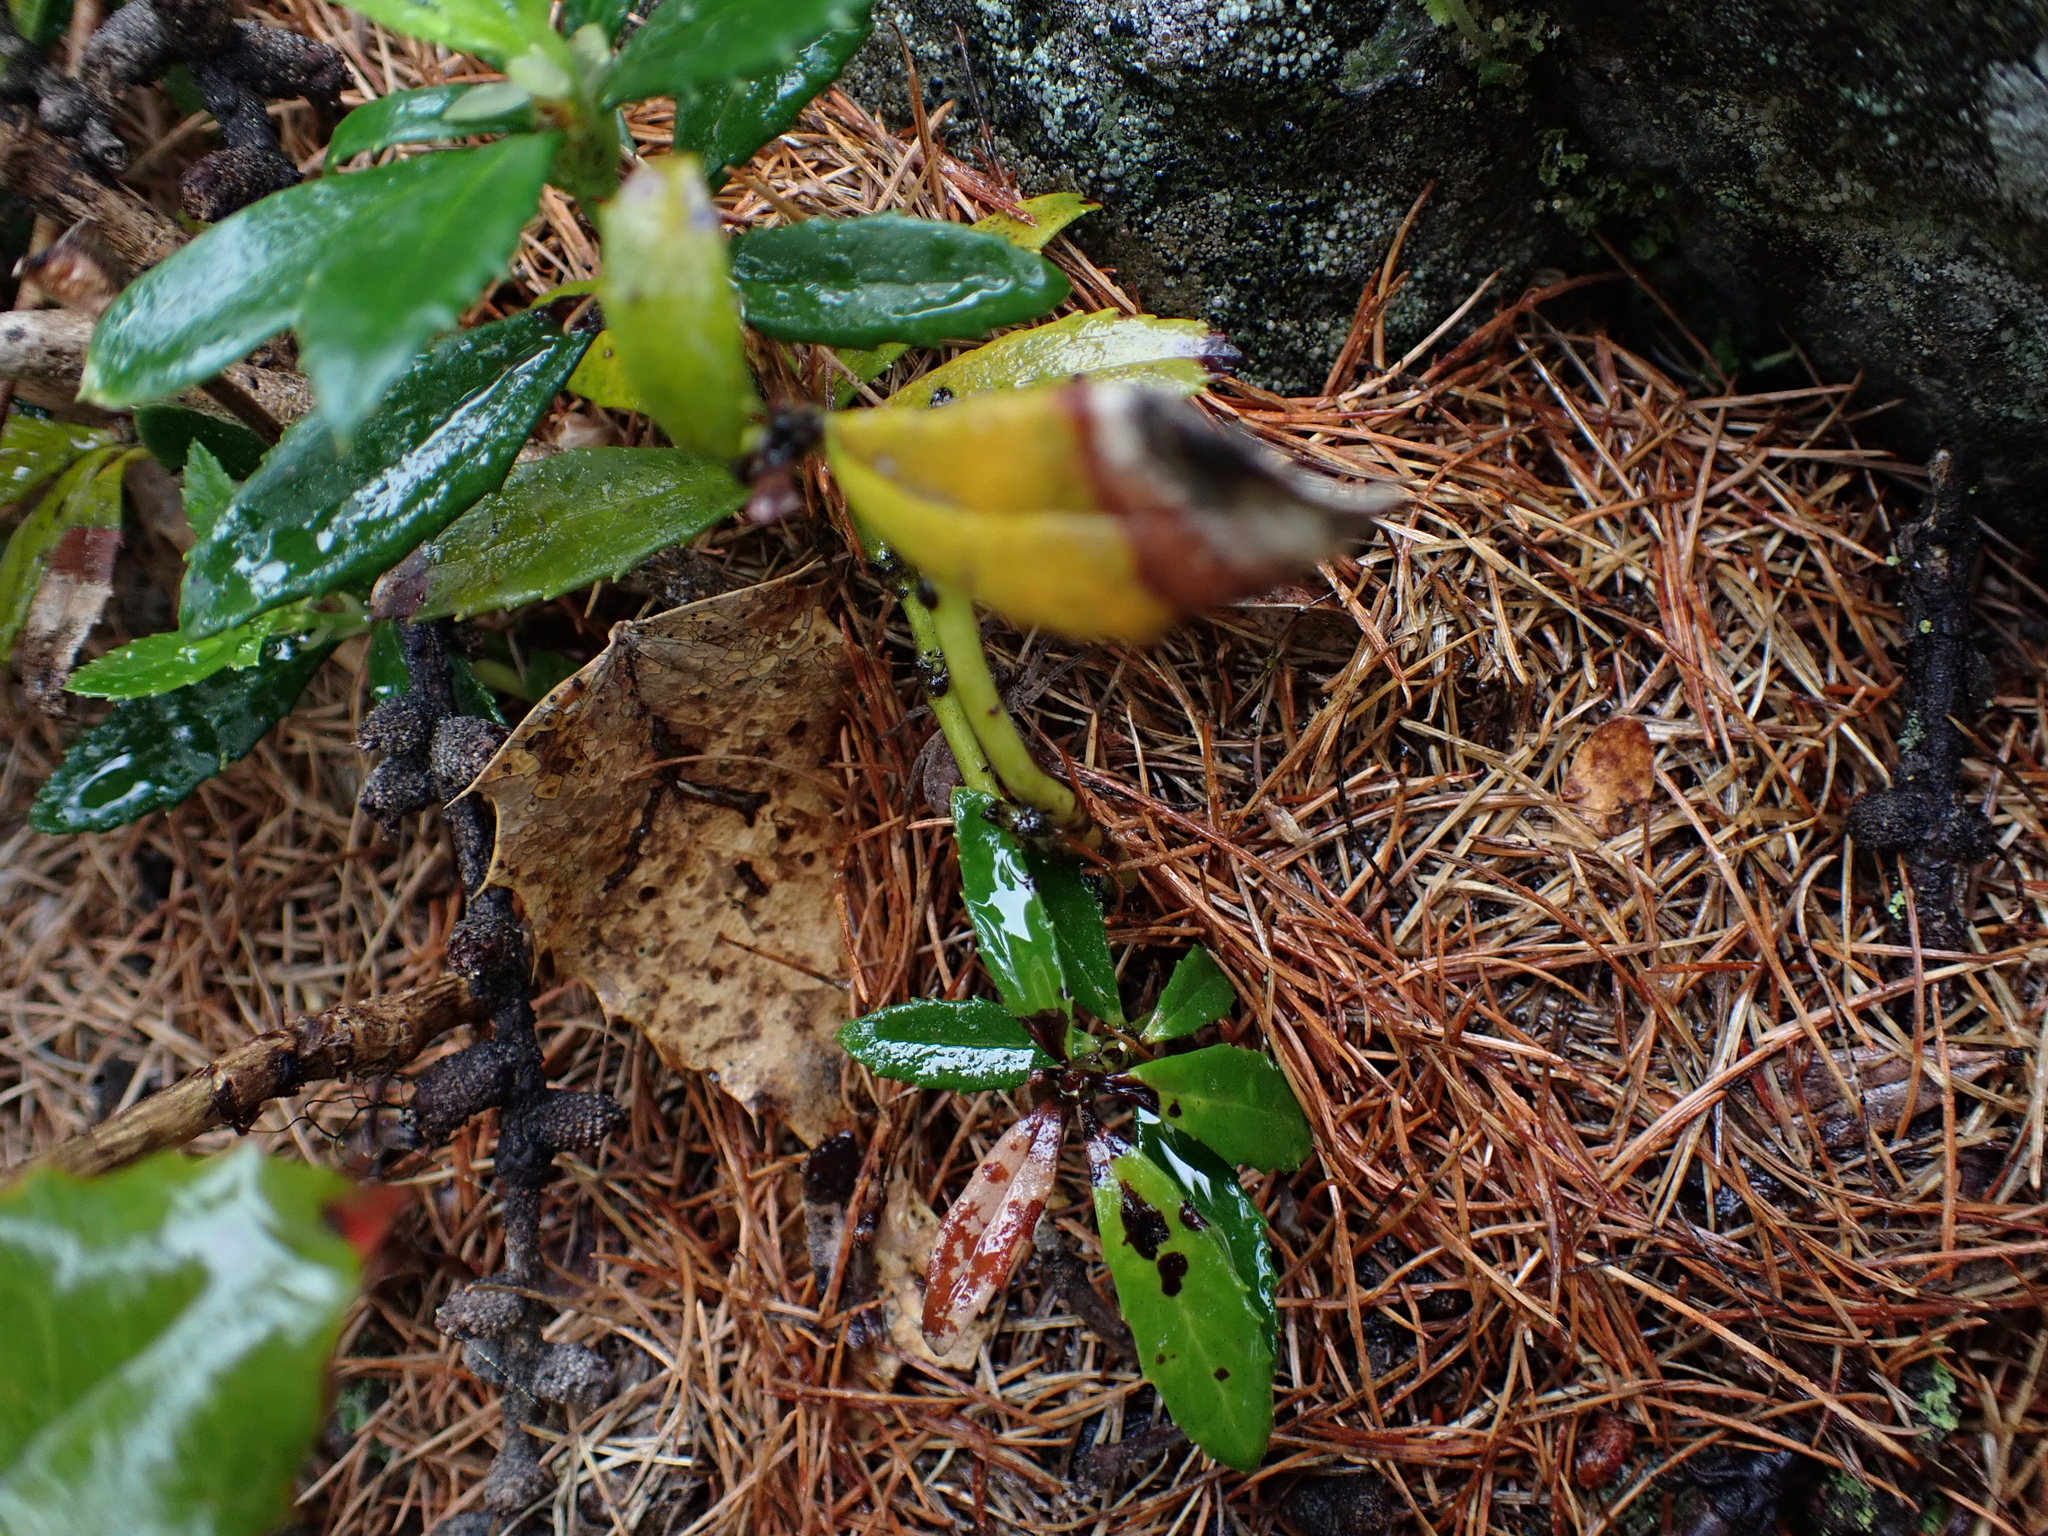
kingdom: Plantae
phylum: Tracheophyta
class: Magnoliopsida
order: Ericales
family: Ericaceae
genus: Chimaphila
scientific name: Chimaphila umbellata
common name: Pipsissewa
